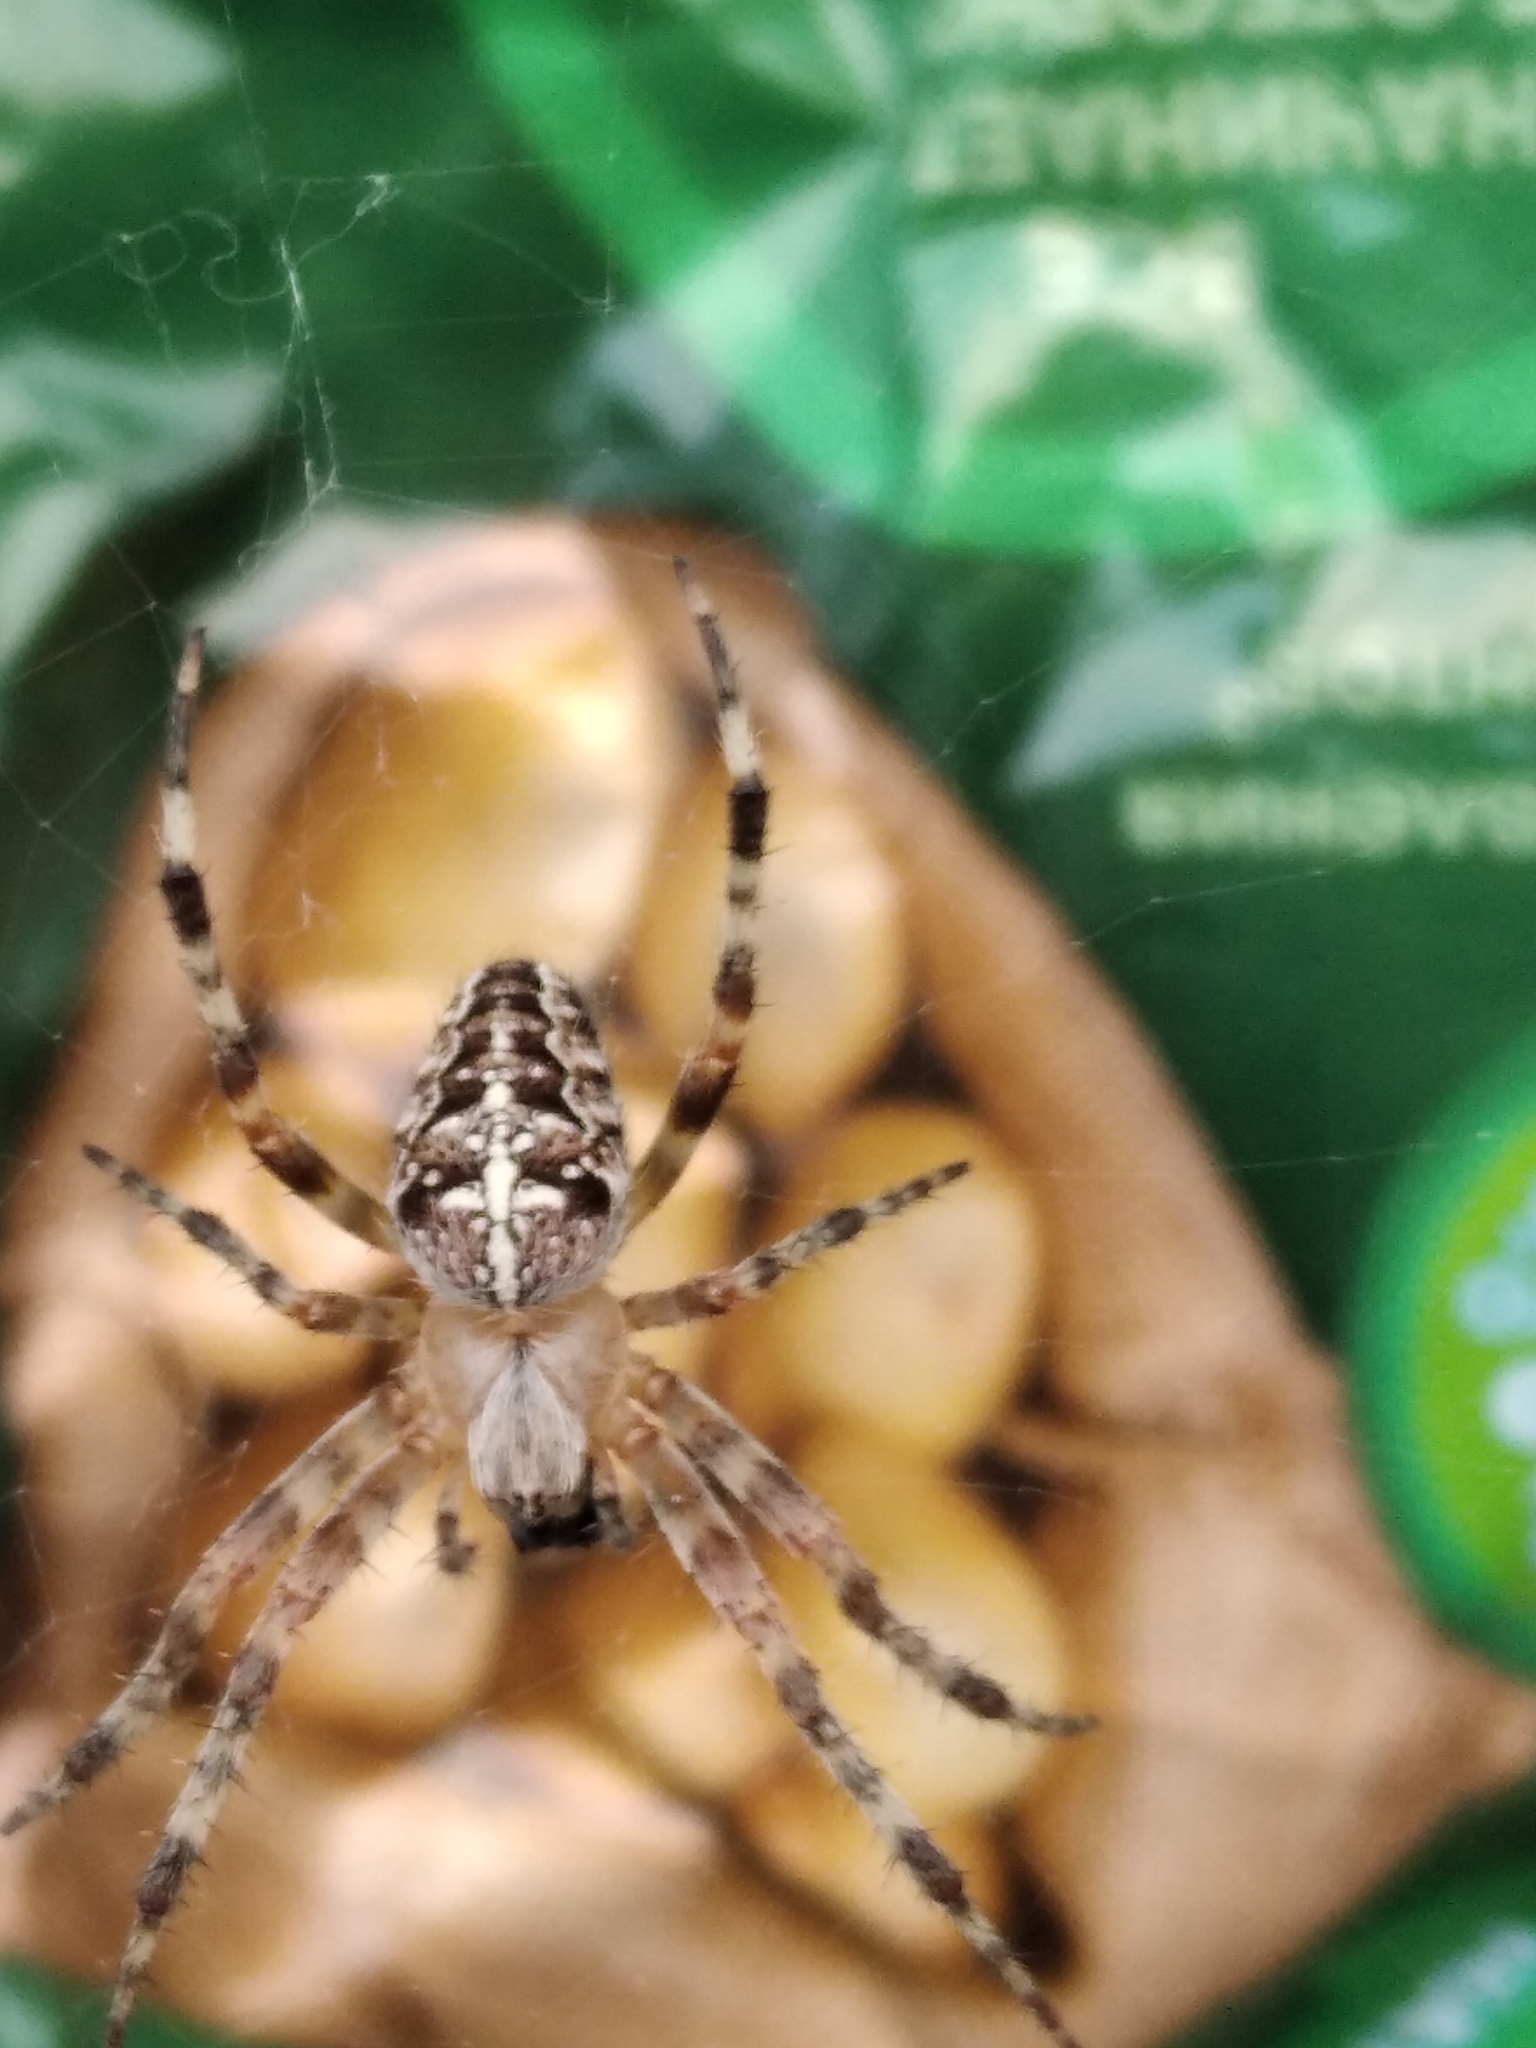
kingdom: Animalia
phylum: Arthropoda
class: Arachnida
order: Araneae
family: Araneidae
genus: Araneus
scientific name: Araneus diadematus
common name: Cross orbweaver
